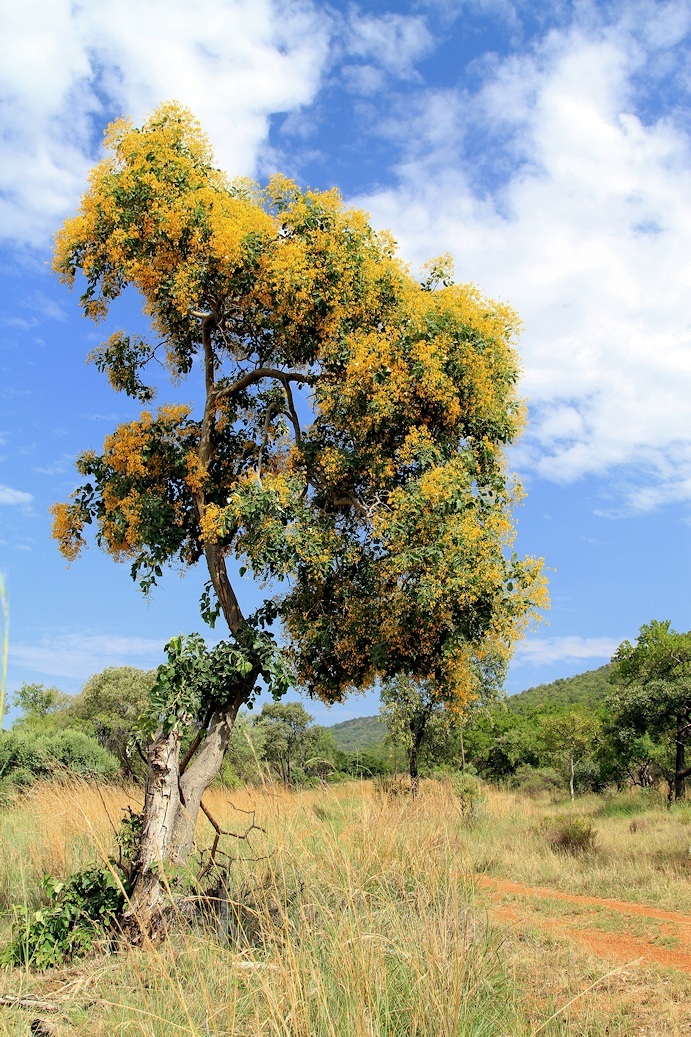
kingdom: Plantae
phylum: Tracheophyta
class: Magnoliopsida
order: Fabales
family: Fabaceae
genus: Pterocarpus
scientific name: Pterocarpus rotundifolius
